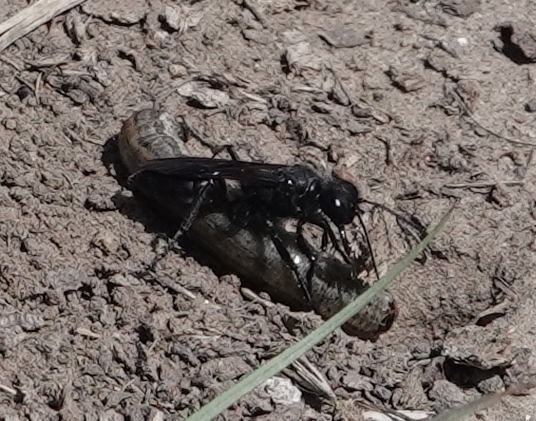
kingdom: Animalia
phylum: Arthropoda
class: Insecta
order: Hymenoptera
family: Sphecidae
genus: Podalonia
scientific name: Podalonia
